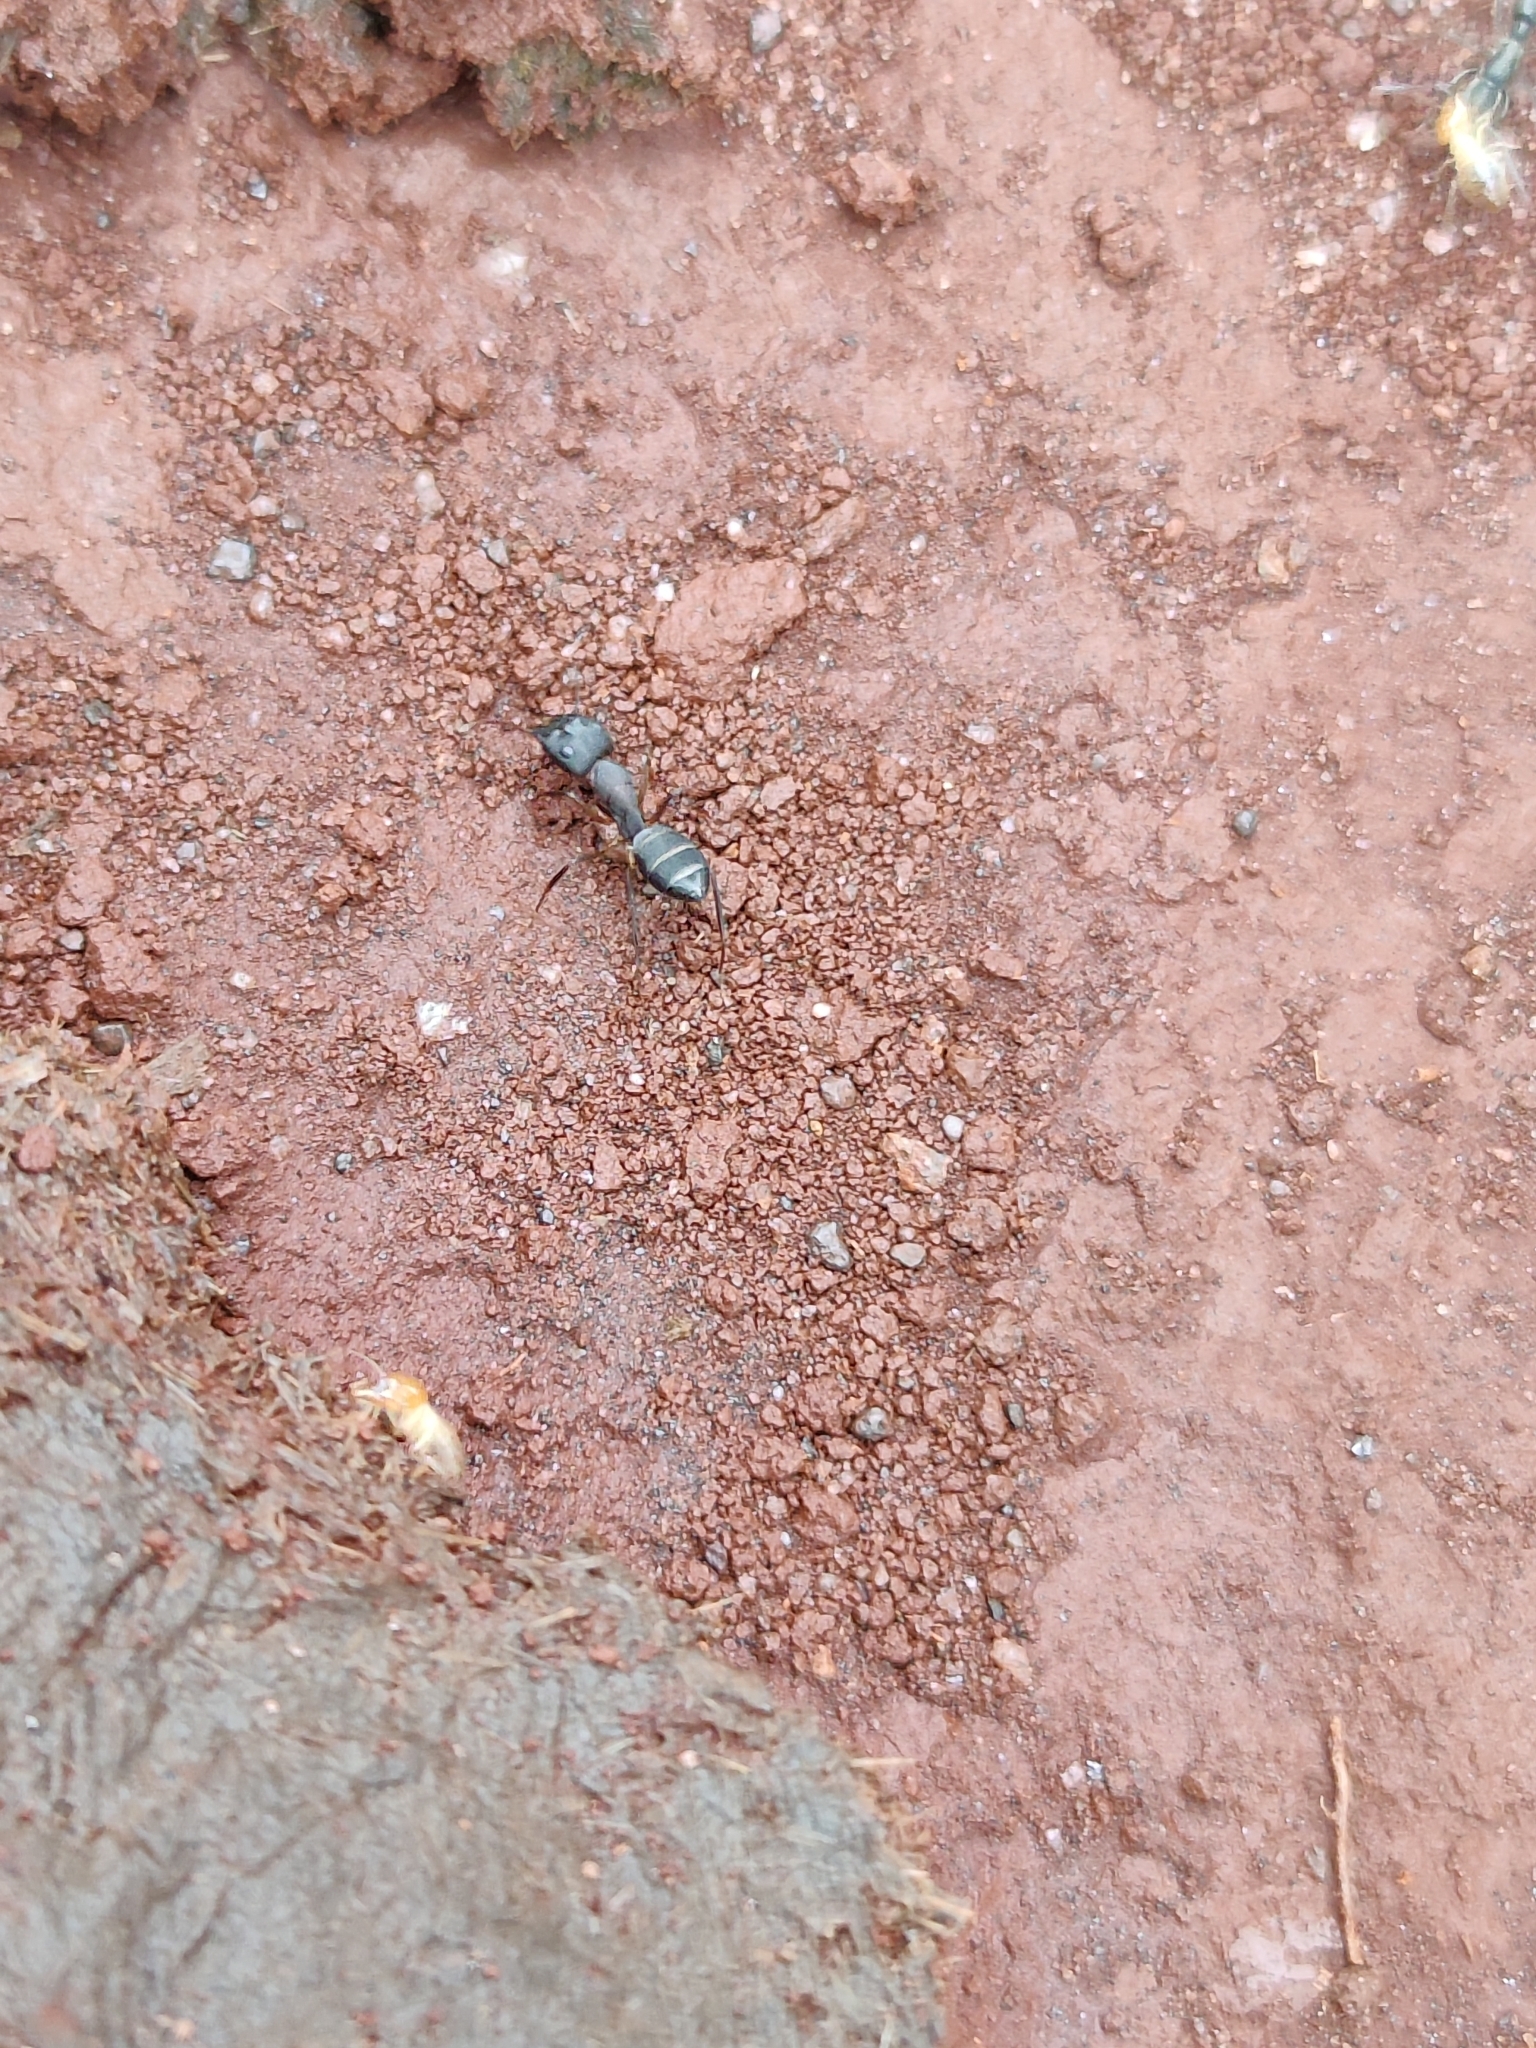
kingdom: Animalia
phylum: Arthropoda
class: Insecta
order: Hymenoptera
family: Formicidae
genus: Camponotus
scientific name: Camponotus compressus
